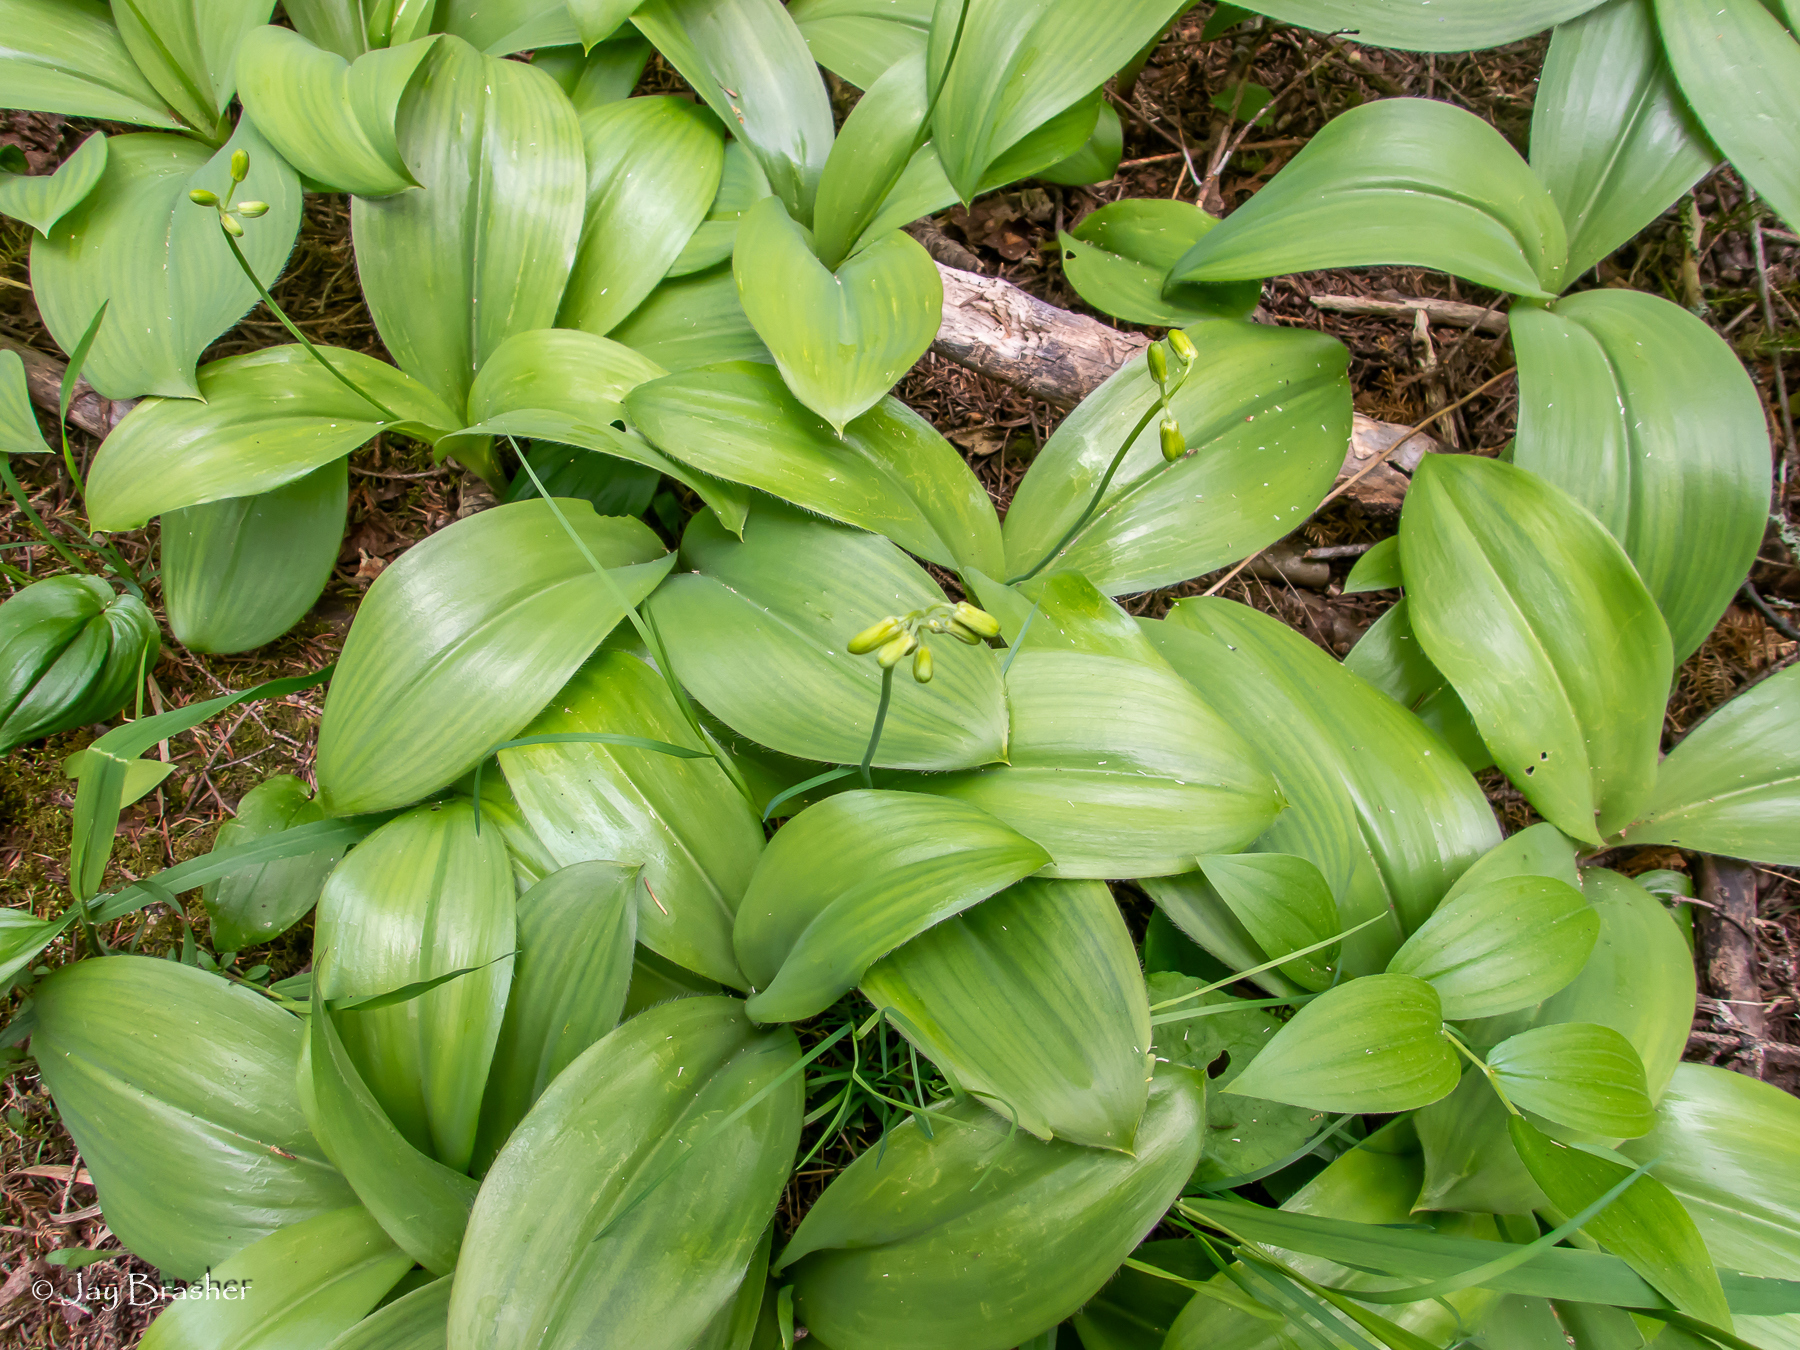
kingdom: Plantae
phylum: Tracheophyta
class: Liliopsida
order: Liliales
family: Liliaceae
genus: Clintonia
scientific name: Clintonia borealis
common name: Yellow clintonia
